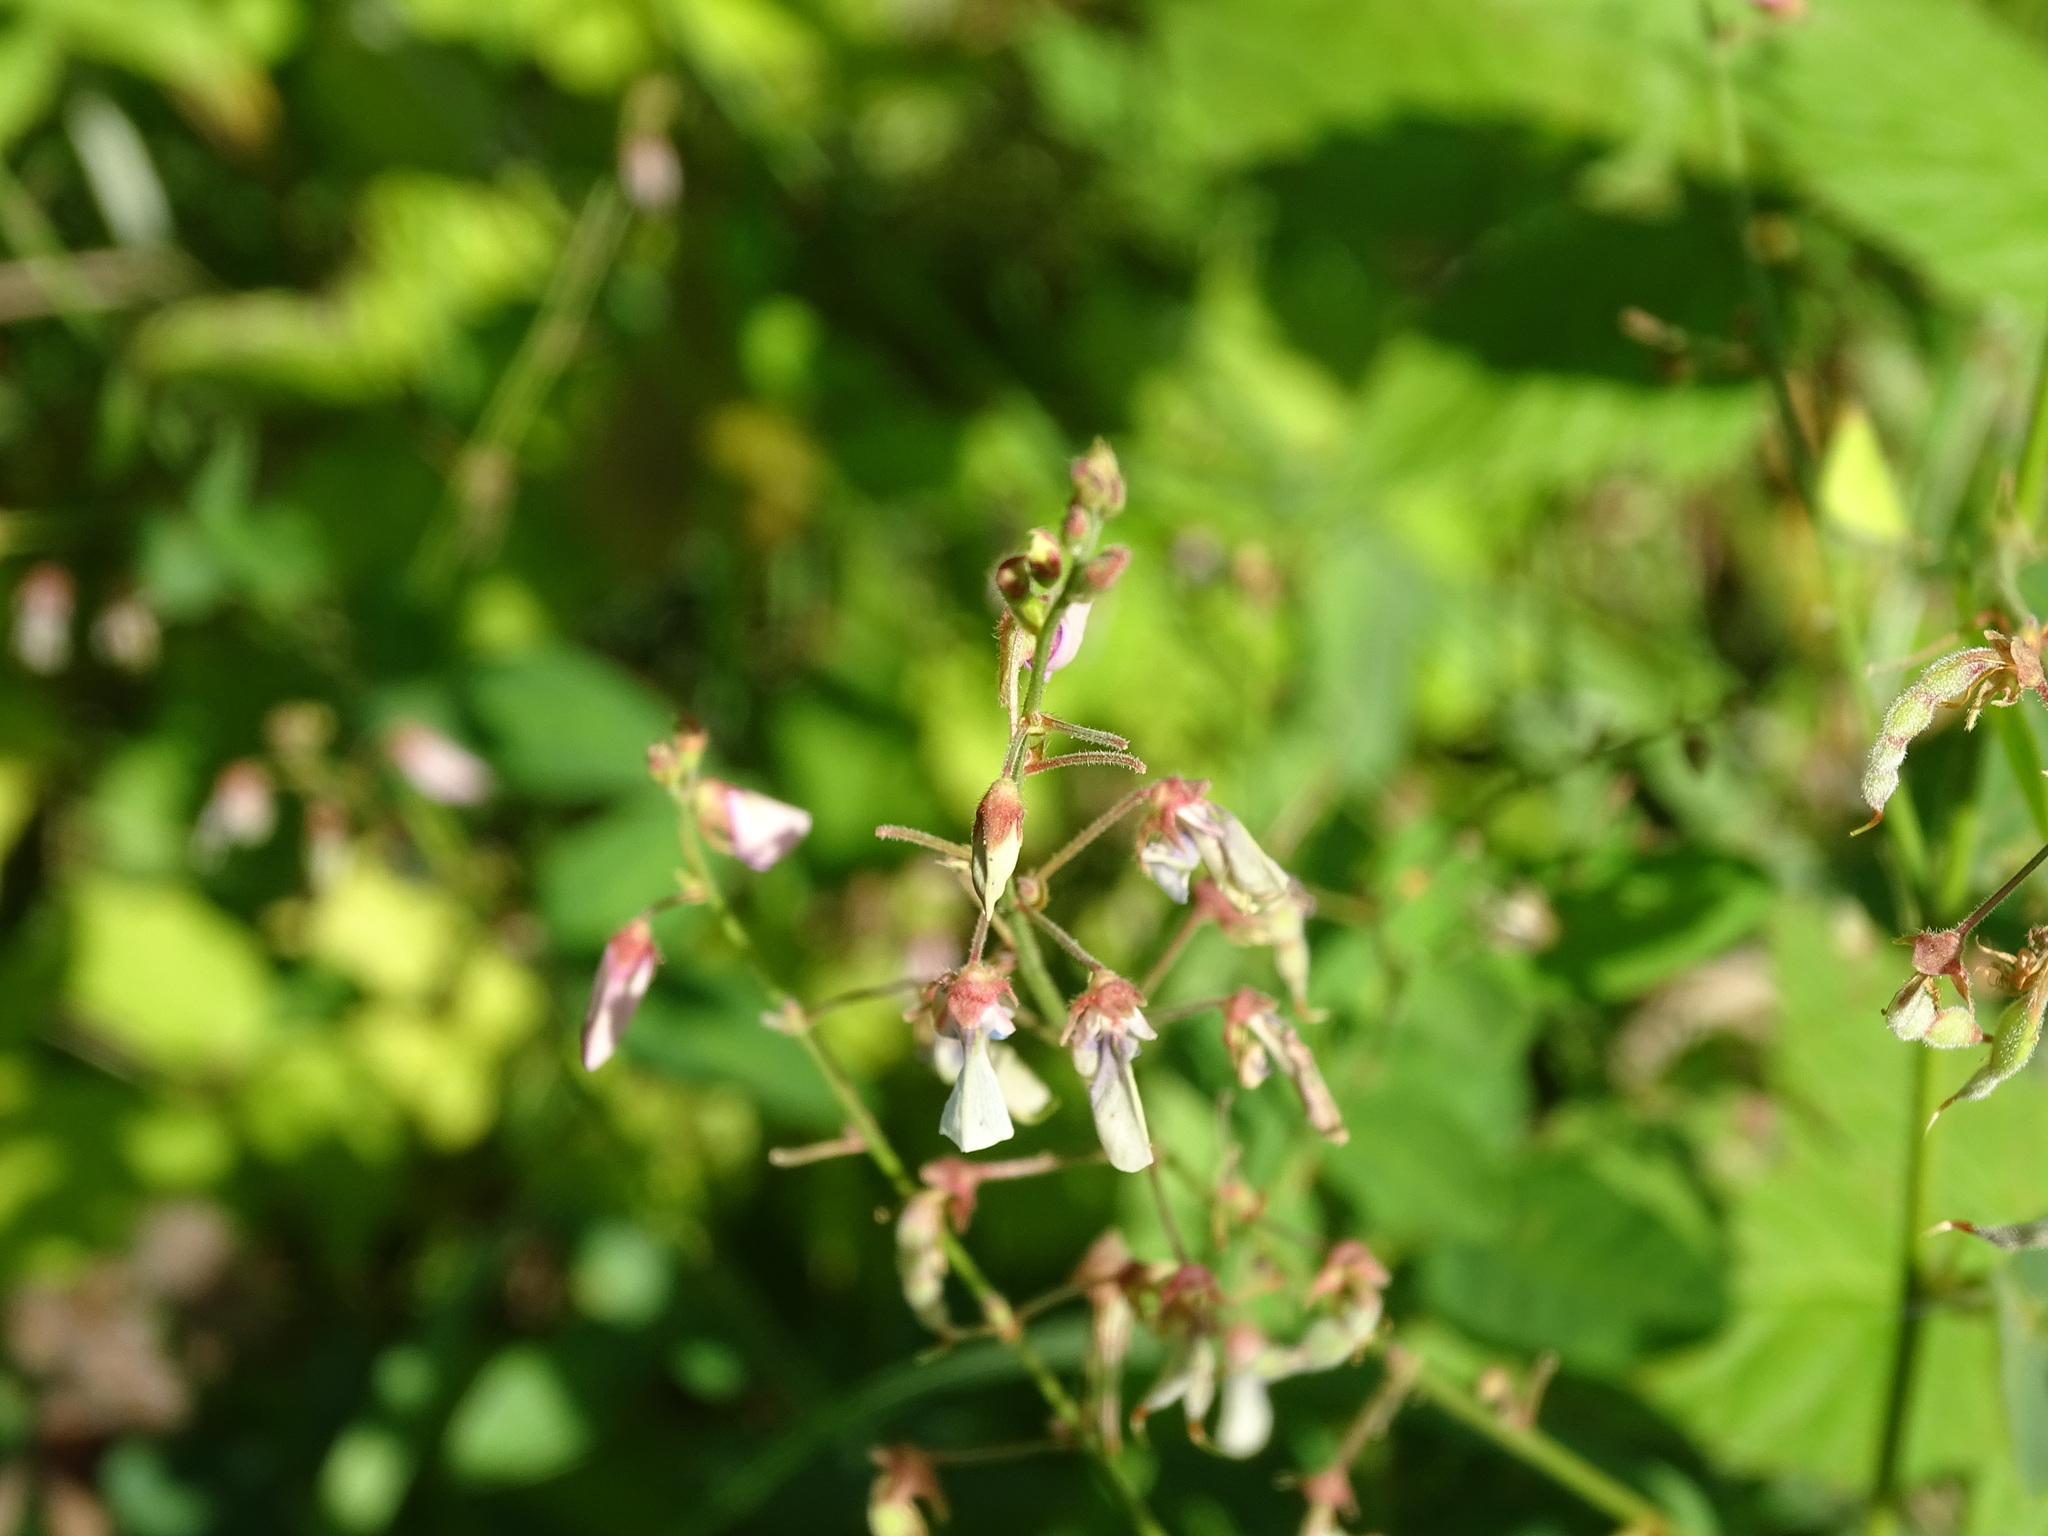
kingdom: Plantae
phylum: Tracheophyta
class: Magnoliopsida
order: Fabales
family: Fabaceae
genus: Desmodium
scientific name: Desmodium perplexum
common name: Perplexed tick trefoil
